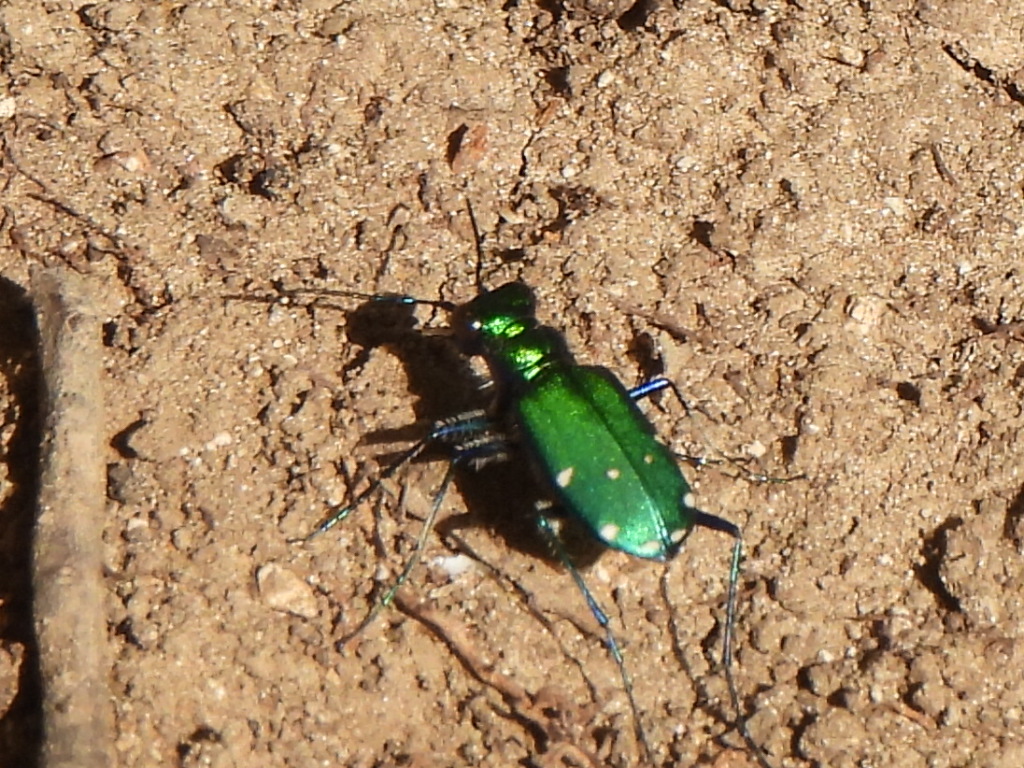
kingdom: Animalia
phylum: Arthropoda
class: Insecta
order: Coleoptera
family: Carabidae
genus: Cicindela
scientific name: Cicindela sexguttata
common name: Six-spotted tiger beetle
